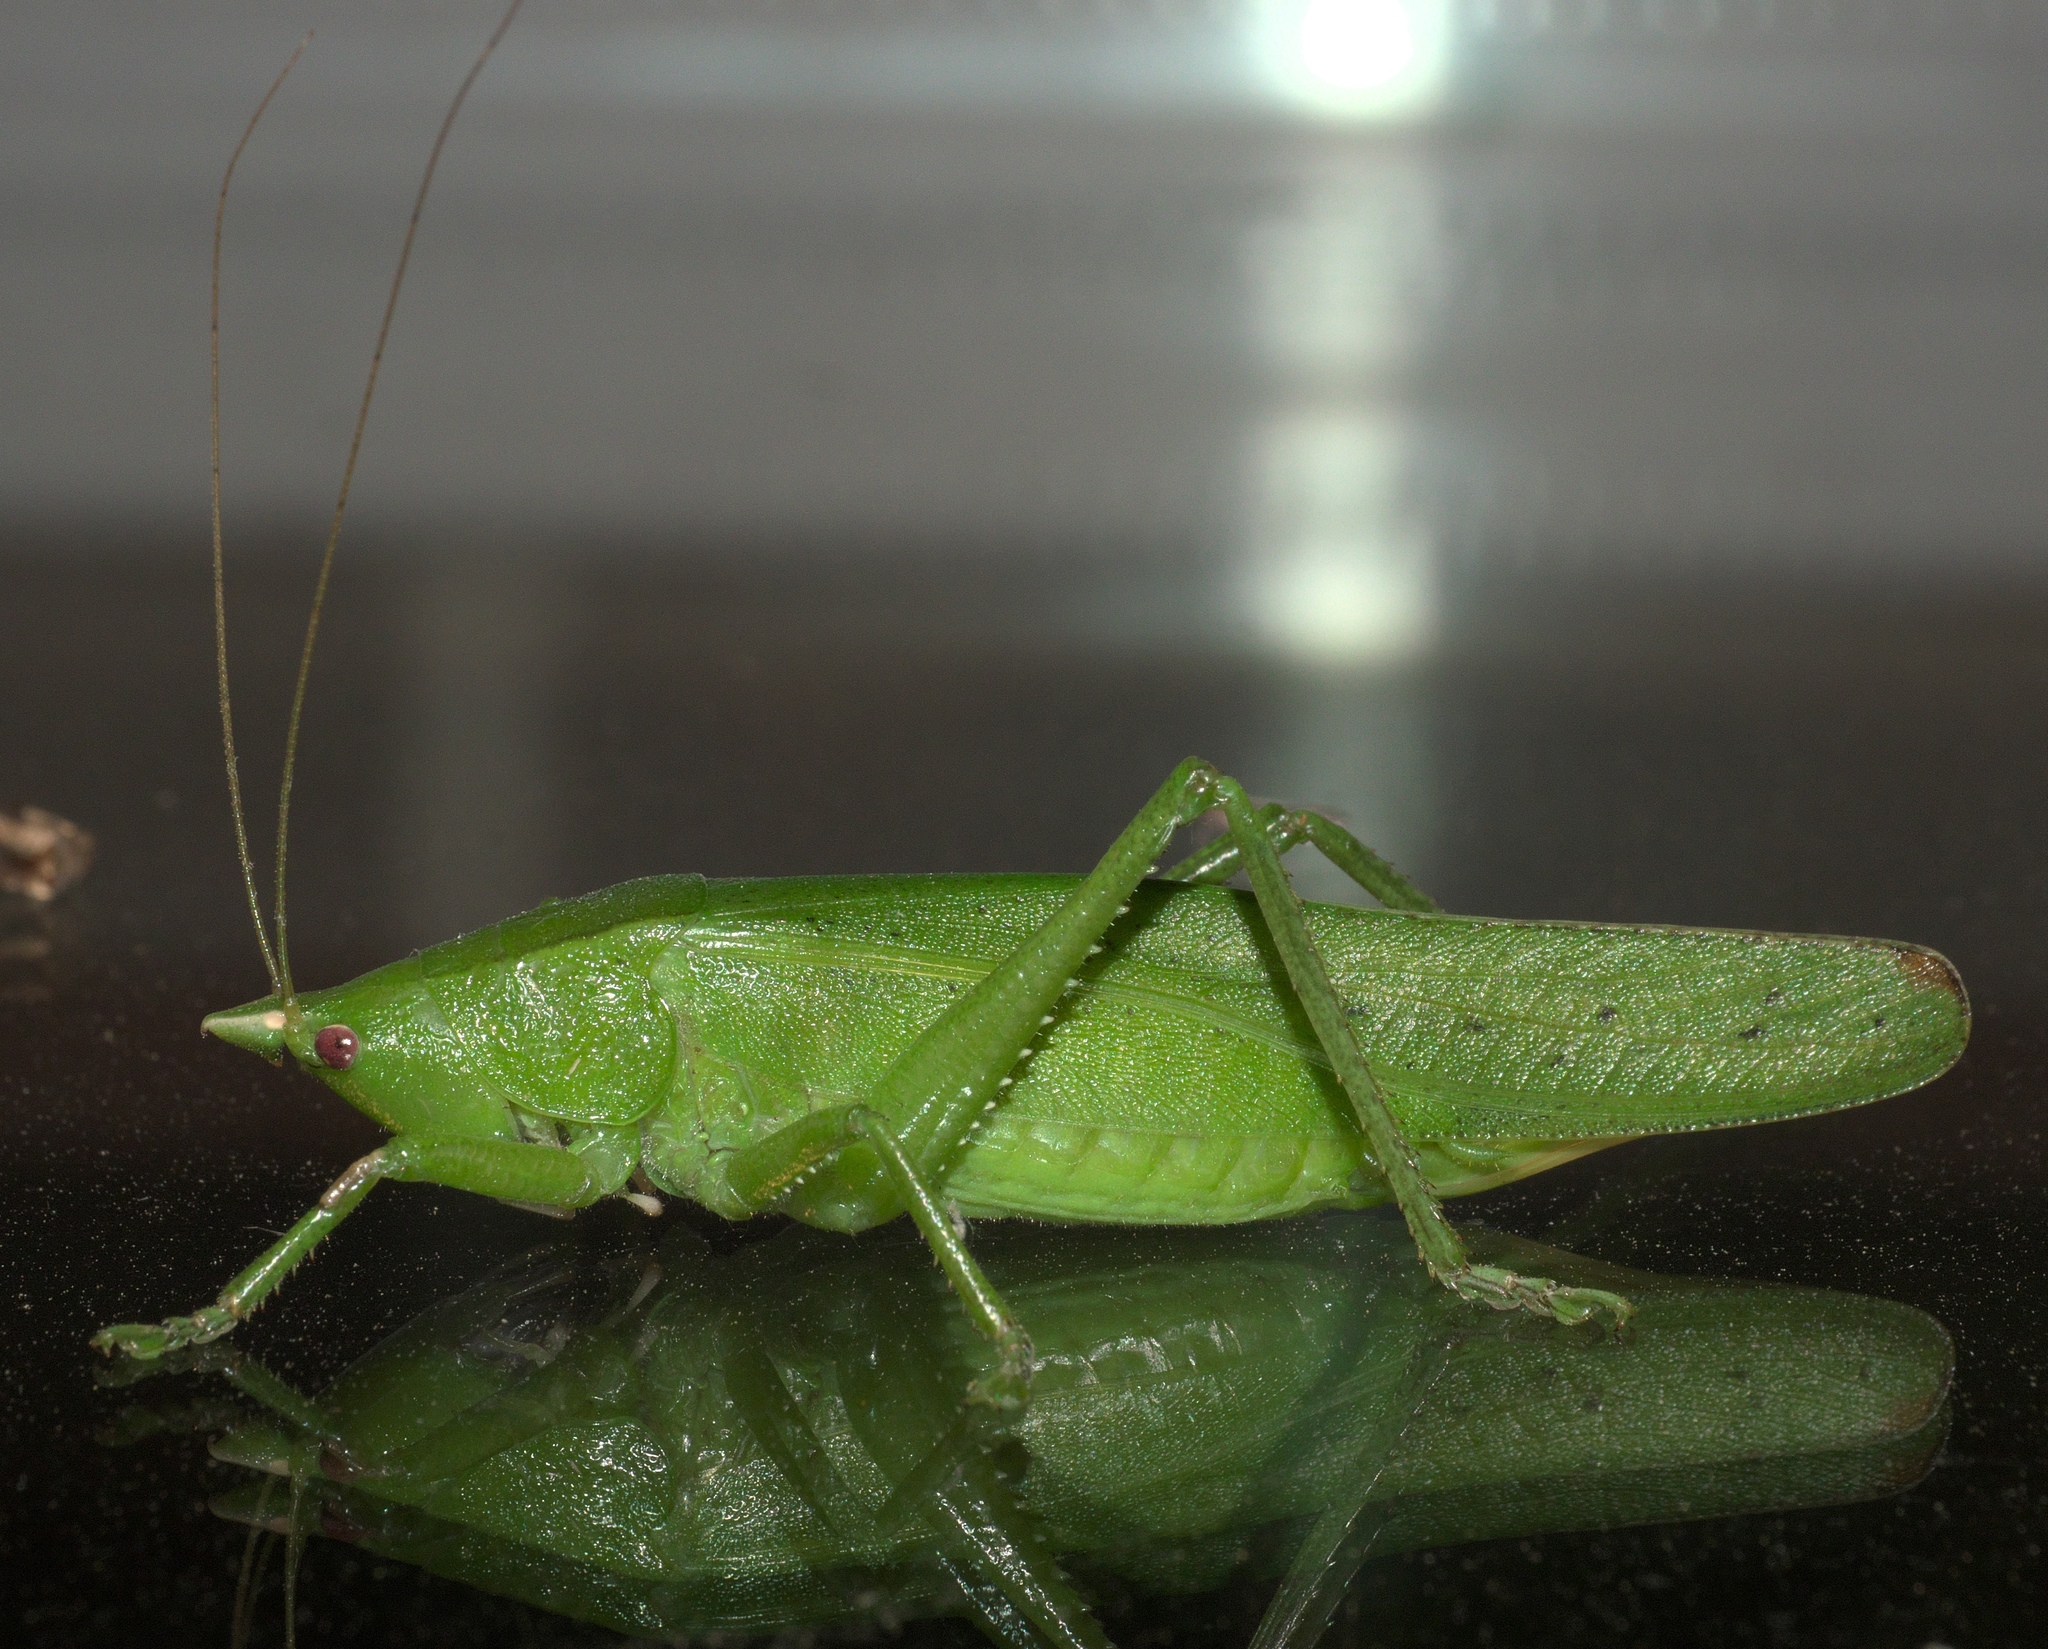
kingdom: Animalia
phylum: Arthropoda
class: Insecta
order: Orthoptera
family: Tettigoniidae
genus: Pyrgocorypha
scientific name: Pyrgocorypha uncinata
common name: Hook-faced conehead
